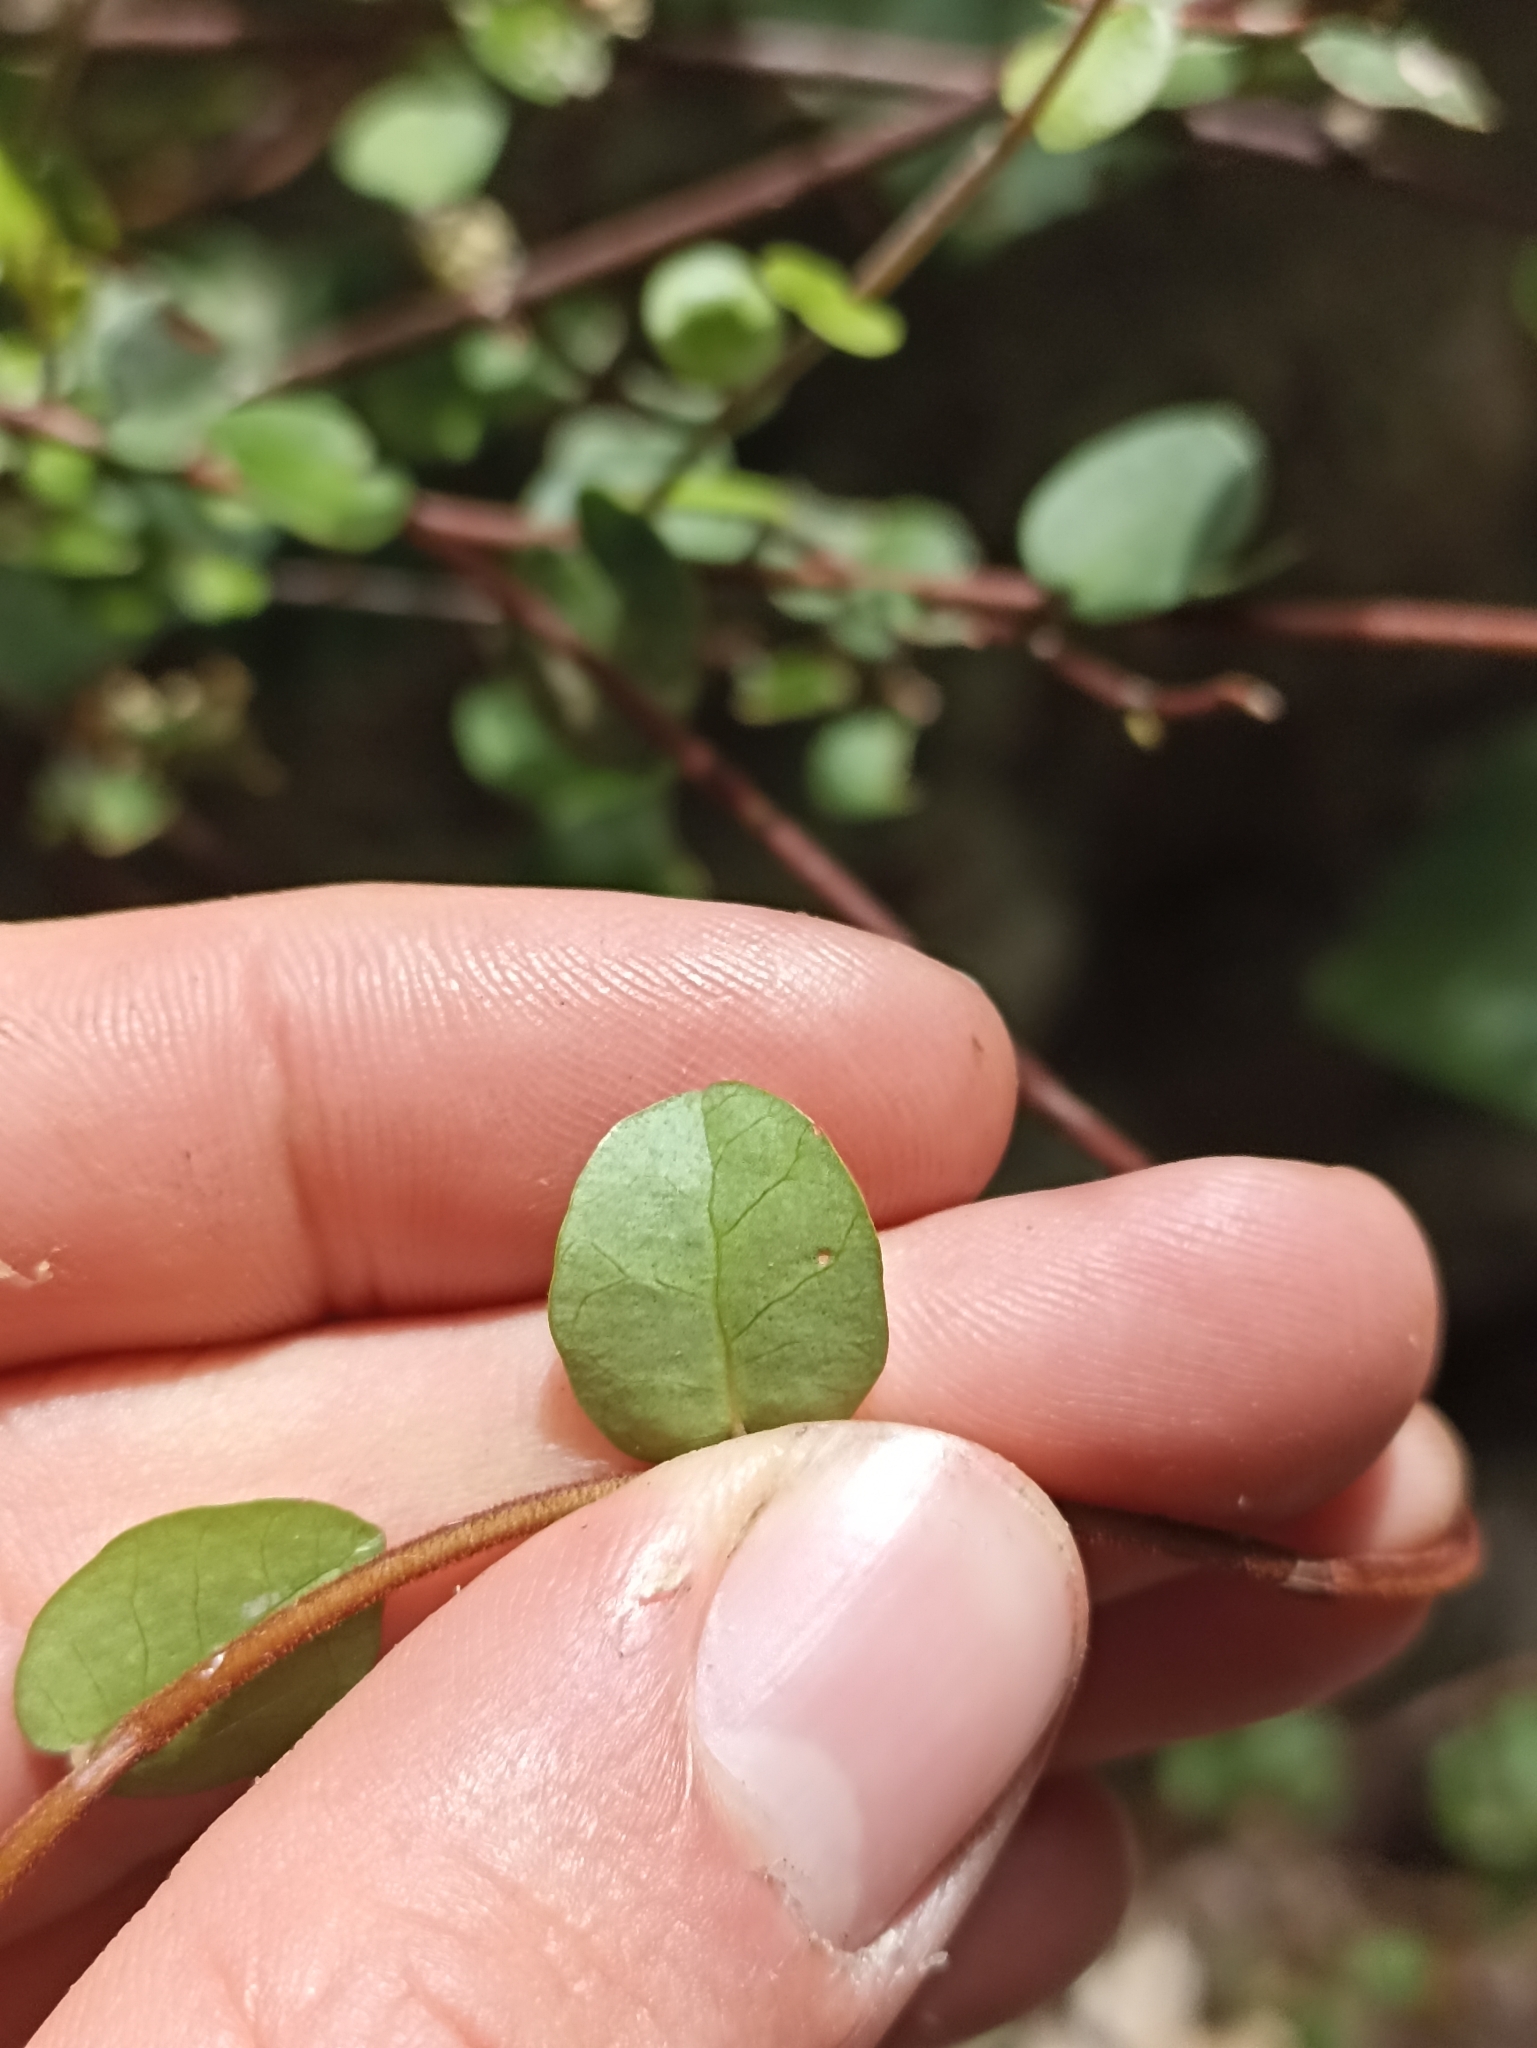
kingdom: Plantae
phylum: Tracheophyta
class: Magnoliopsida
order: Caryophyllales
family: Polygonaceae
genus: Muehlenbeckia
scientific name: Muehlenbeckia complexa
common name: Wireplant
